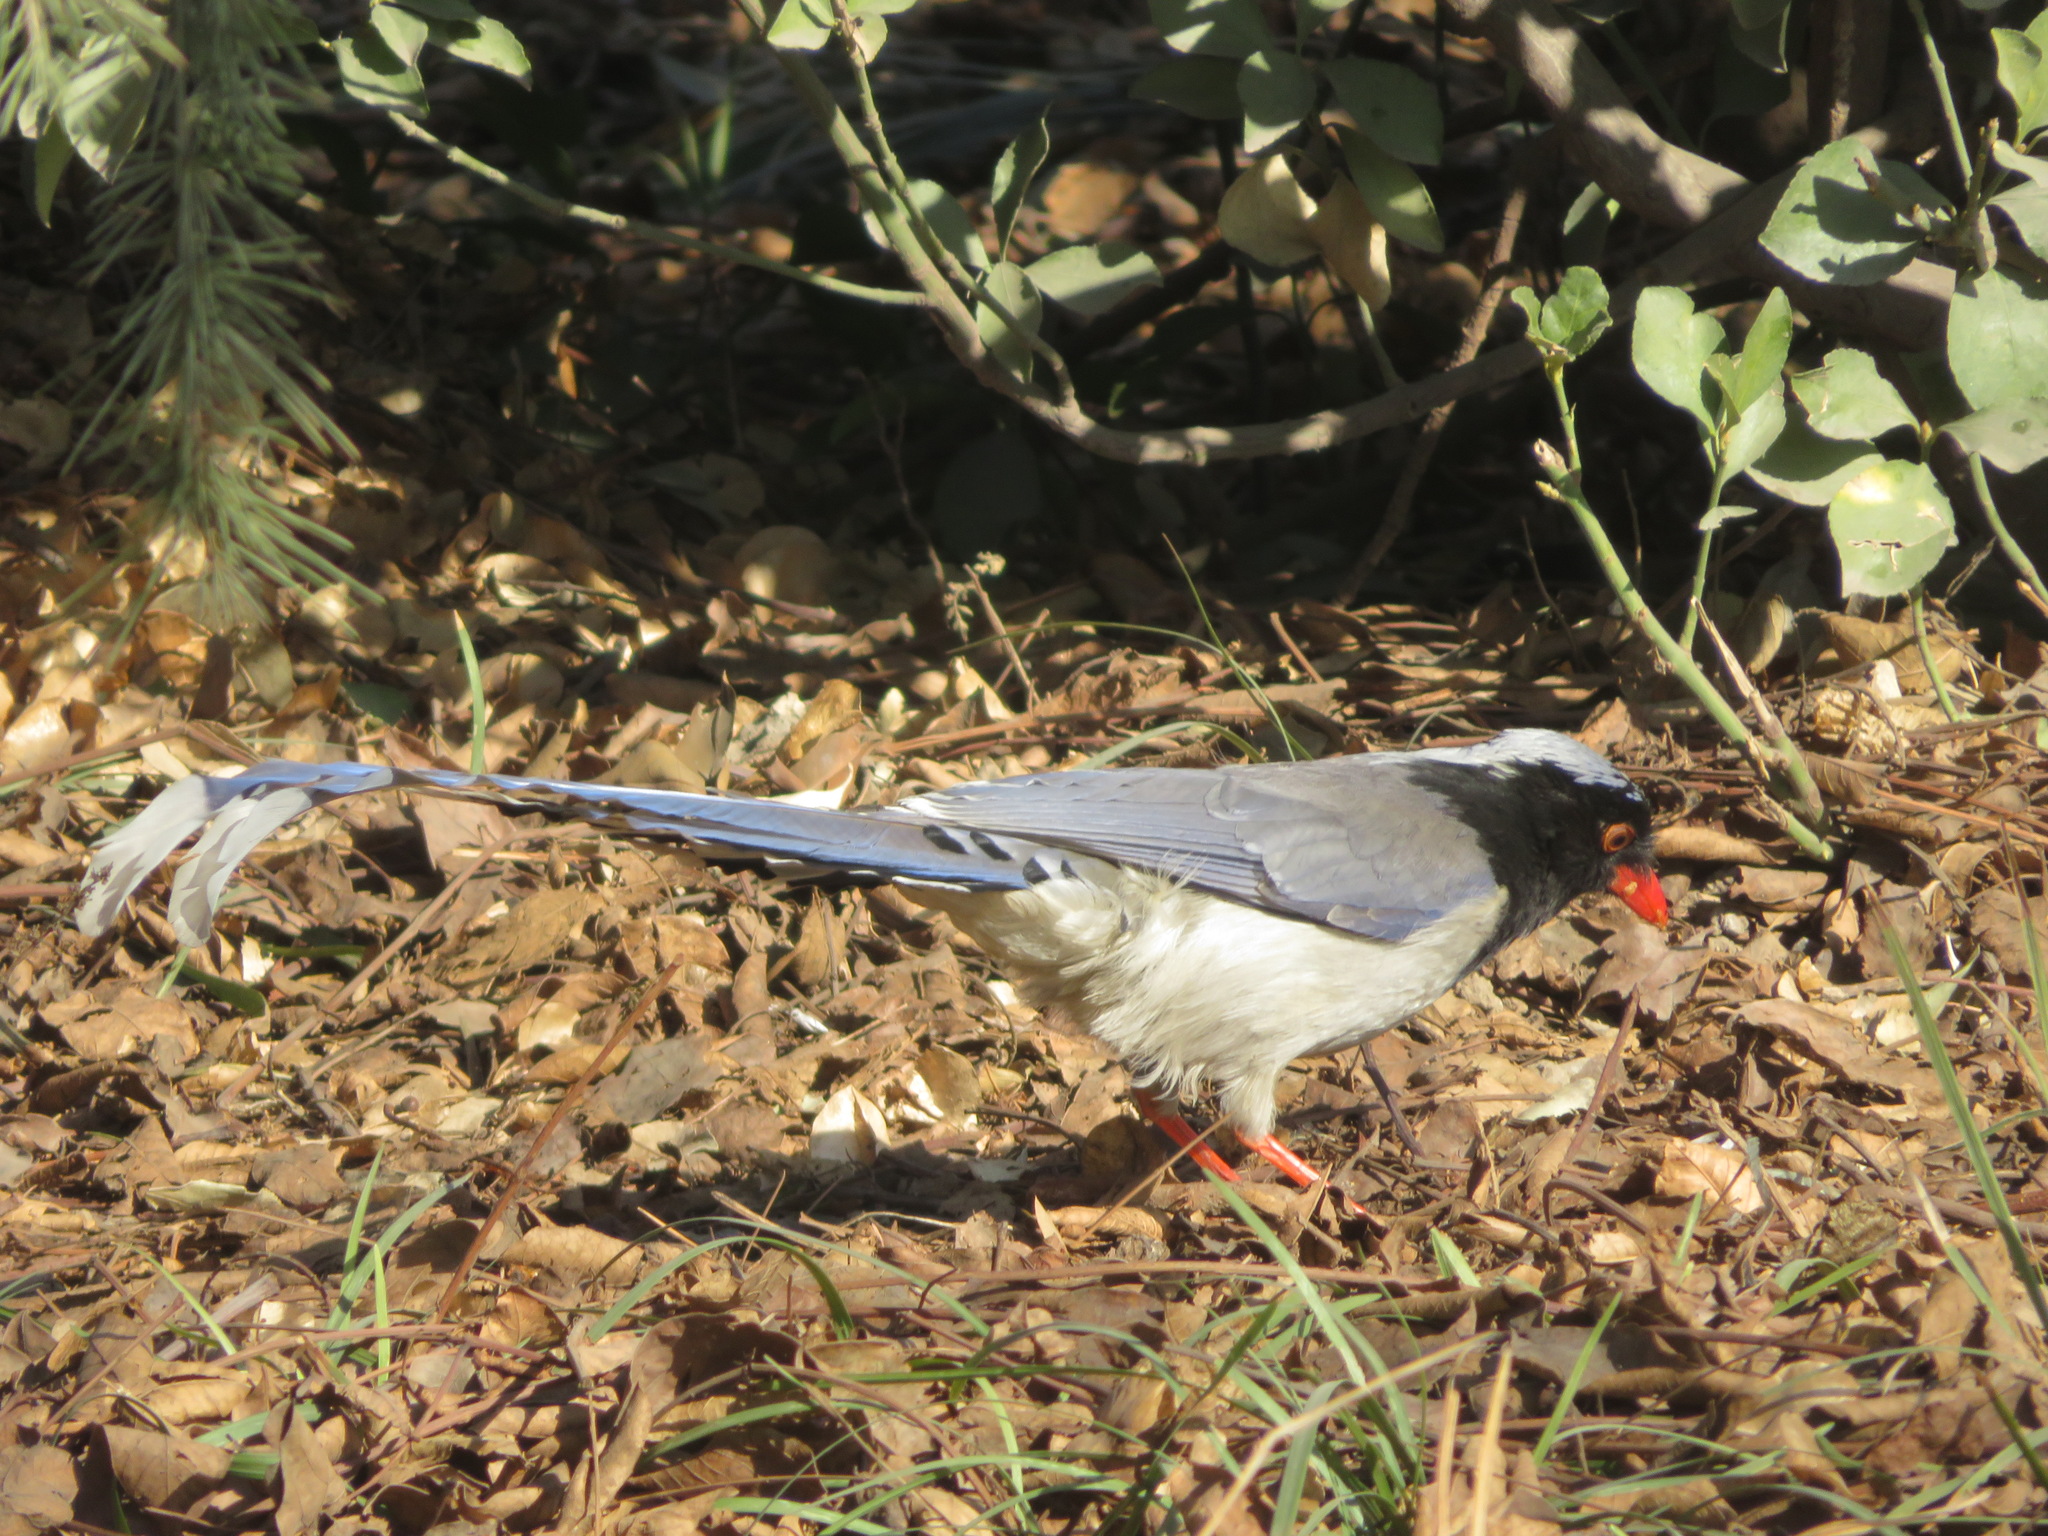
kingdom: Animalia
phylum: Chordata
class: Aves
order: Passeriformes
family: Corvidae
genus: Urocissa
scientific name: Urocissa erythroryncha
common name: Red-billed blue magpie
